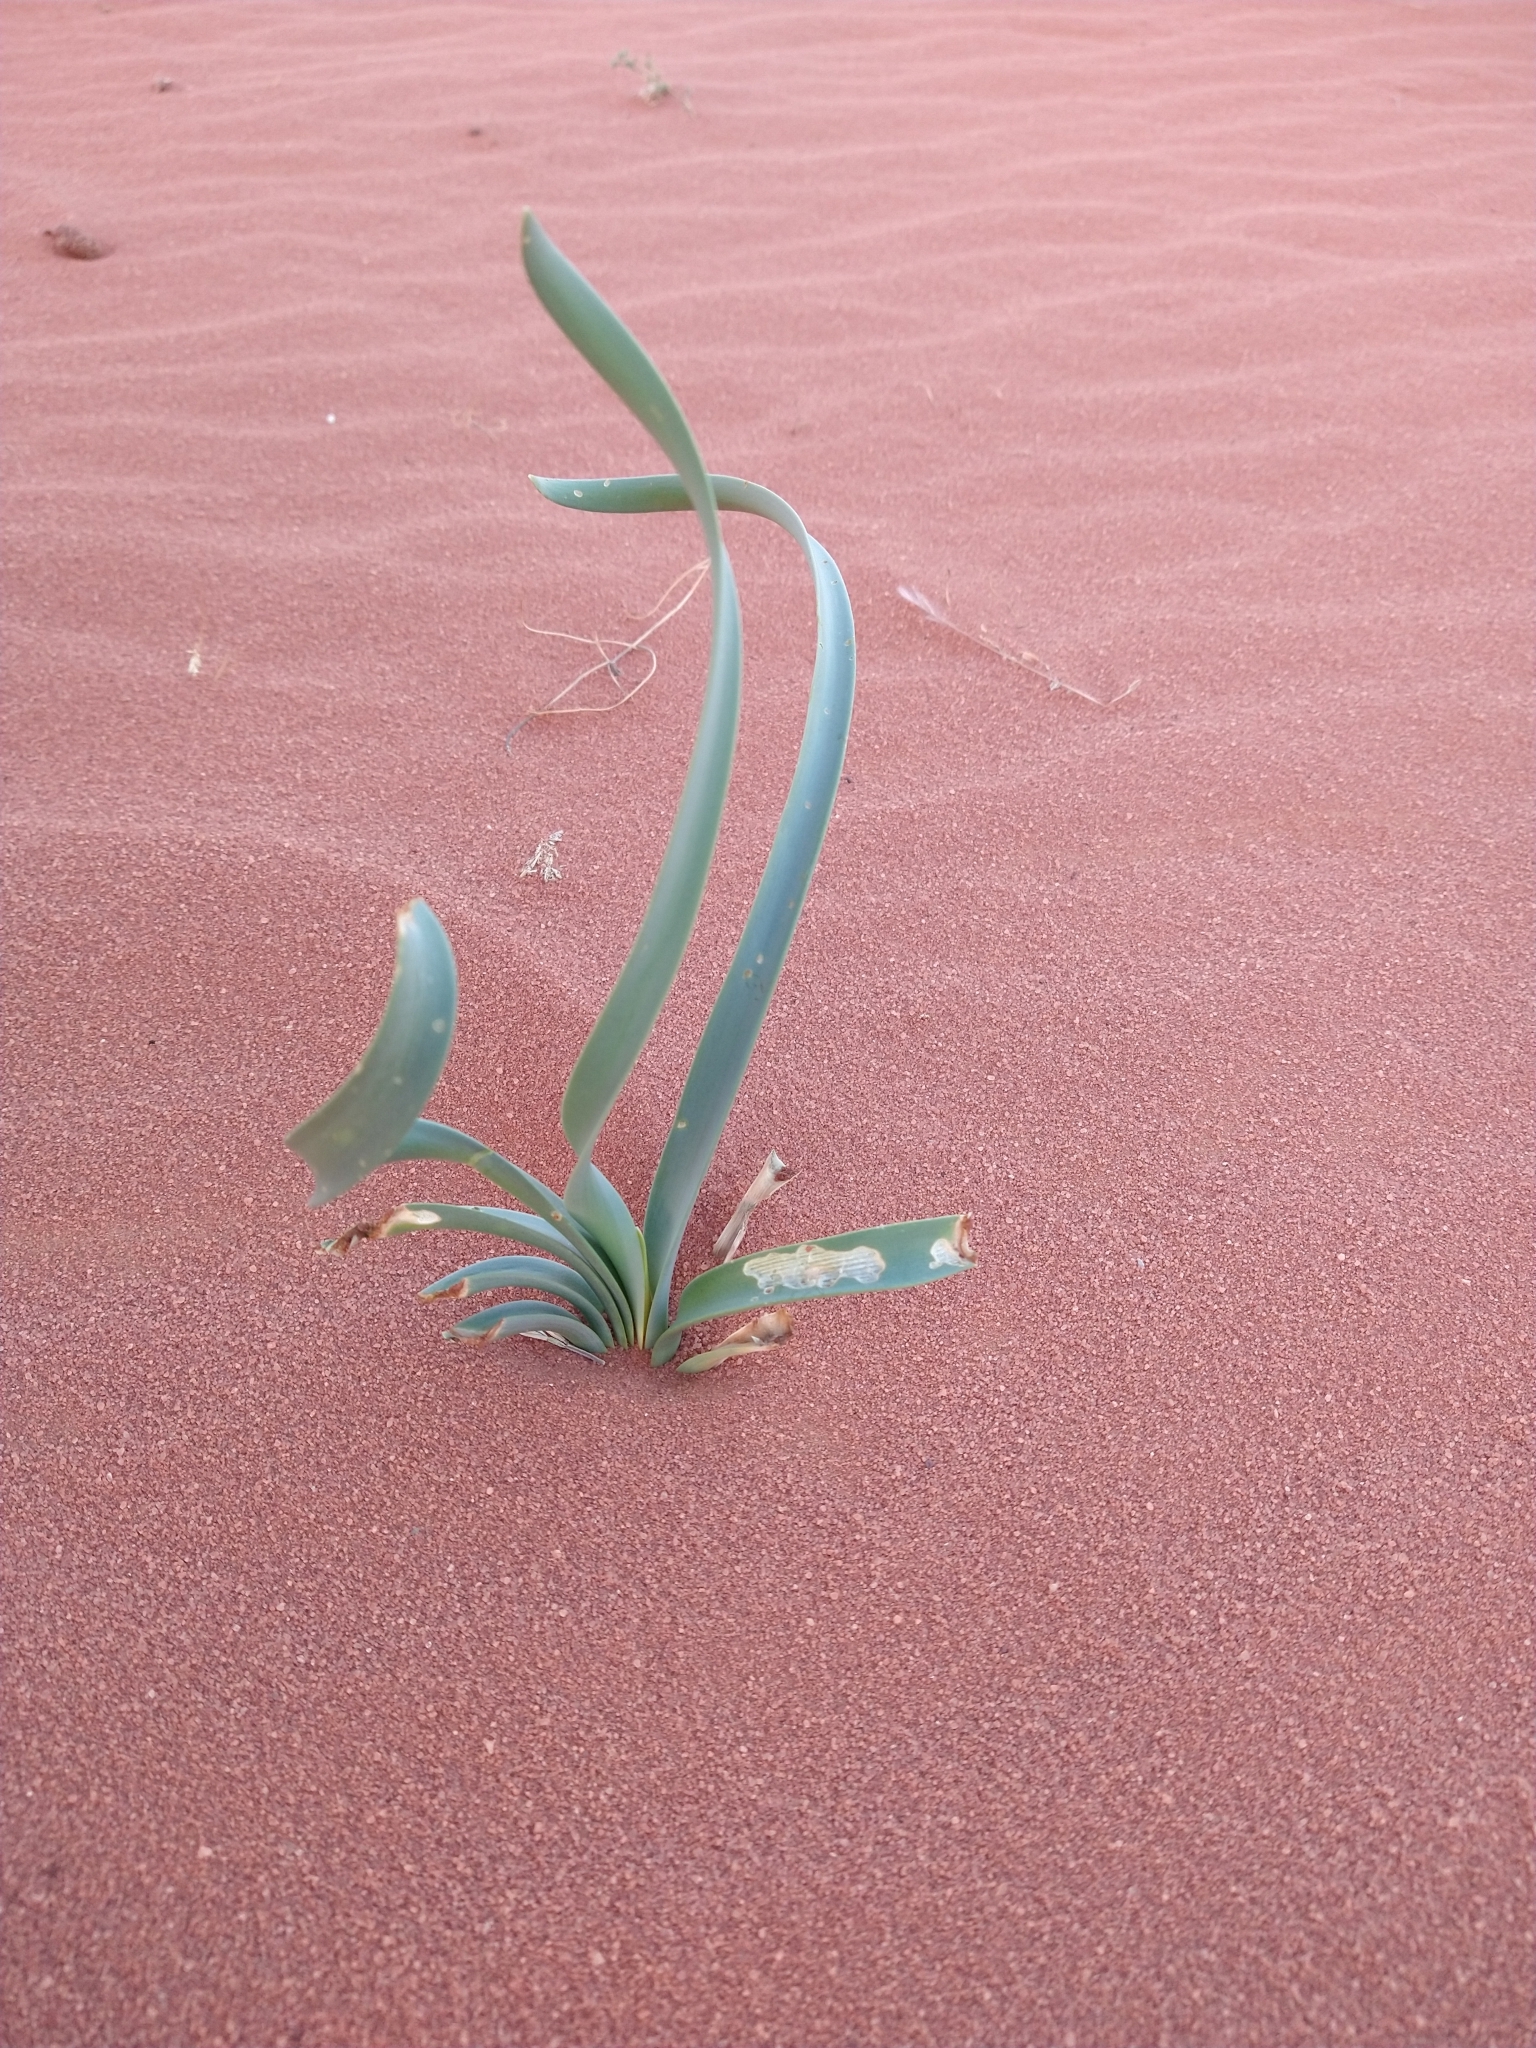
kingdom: Plantae
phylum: Tracheophyta
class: Liliopsida
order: Asparagales
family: Amaryllidaceae
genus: Pancratium
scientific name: Pancratium sickenbergeri
